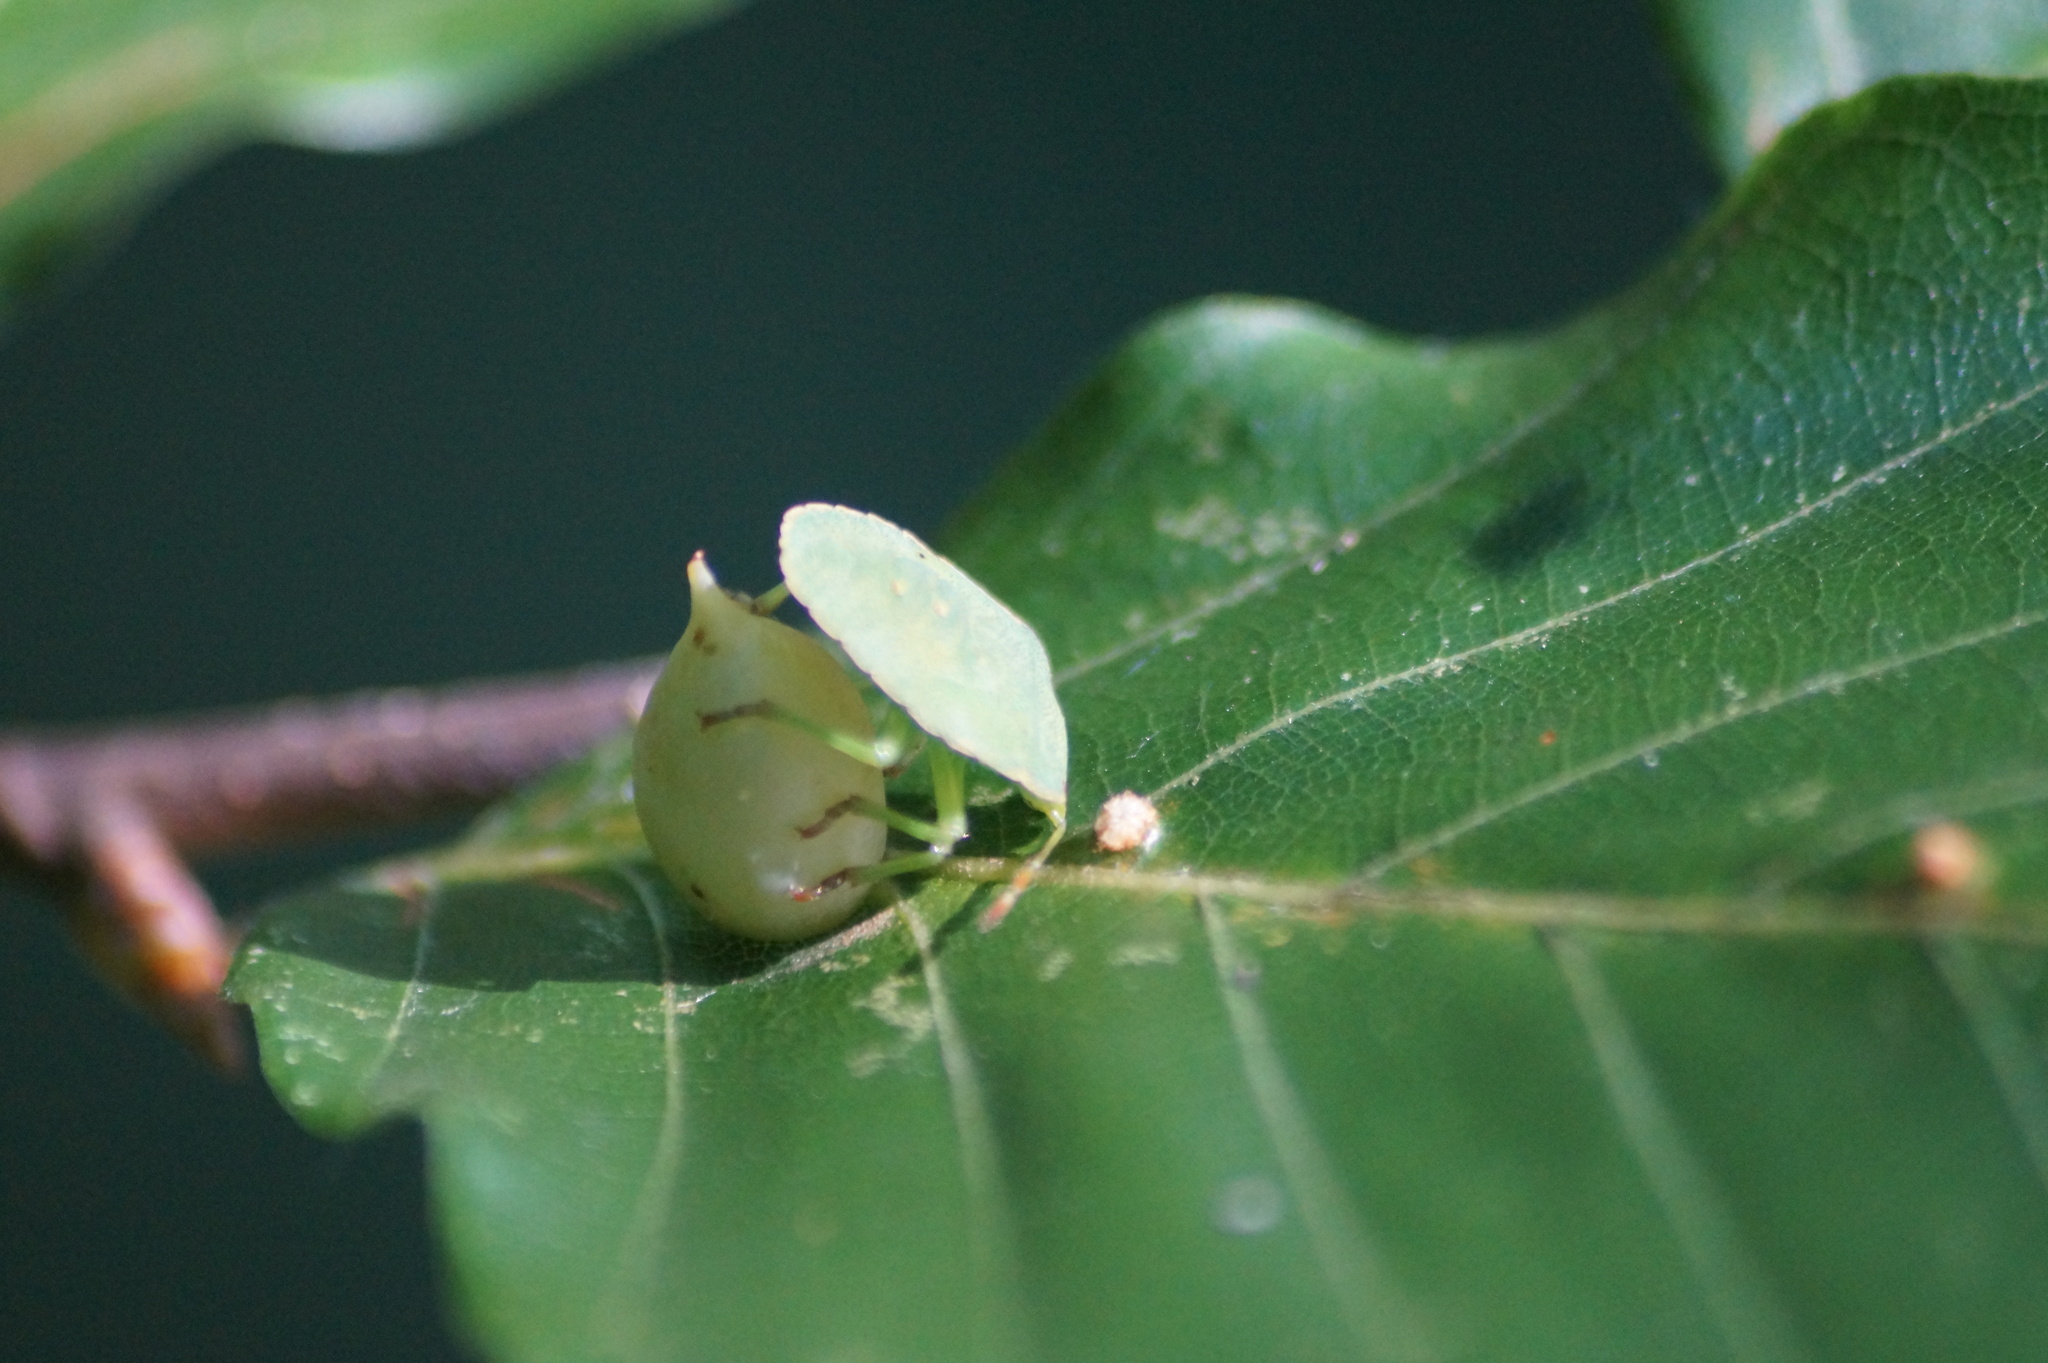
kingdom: Animalia
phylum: Arthropoda
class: Insecta
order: Diptera
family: Cecidomyiidae
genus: Mikiola
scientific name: Mikiola fagi
